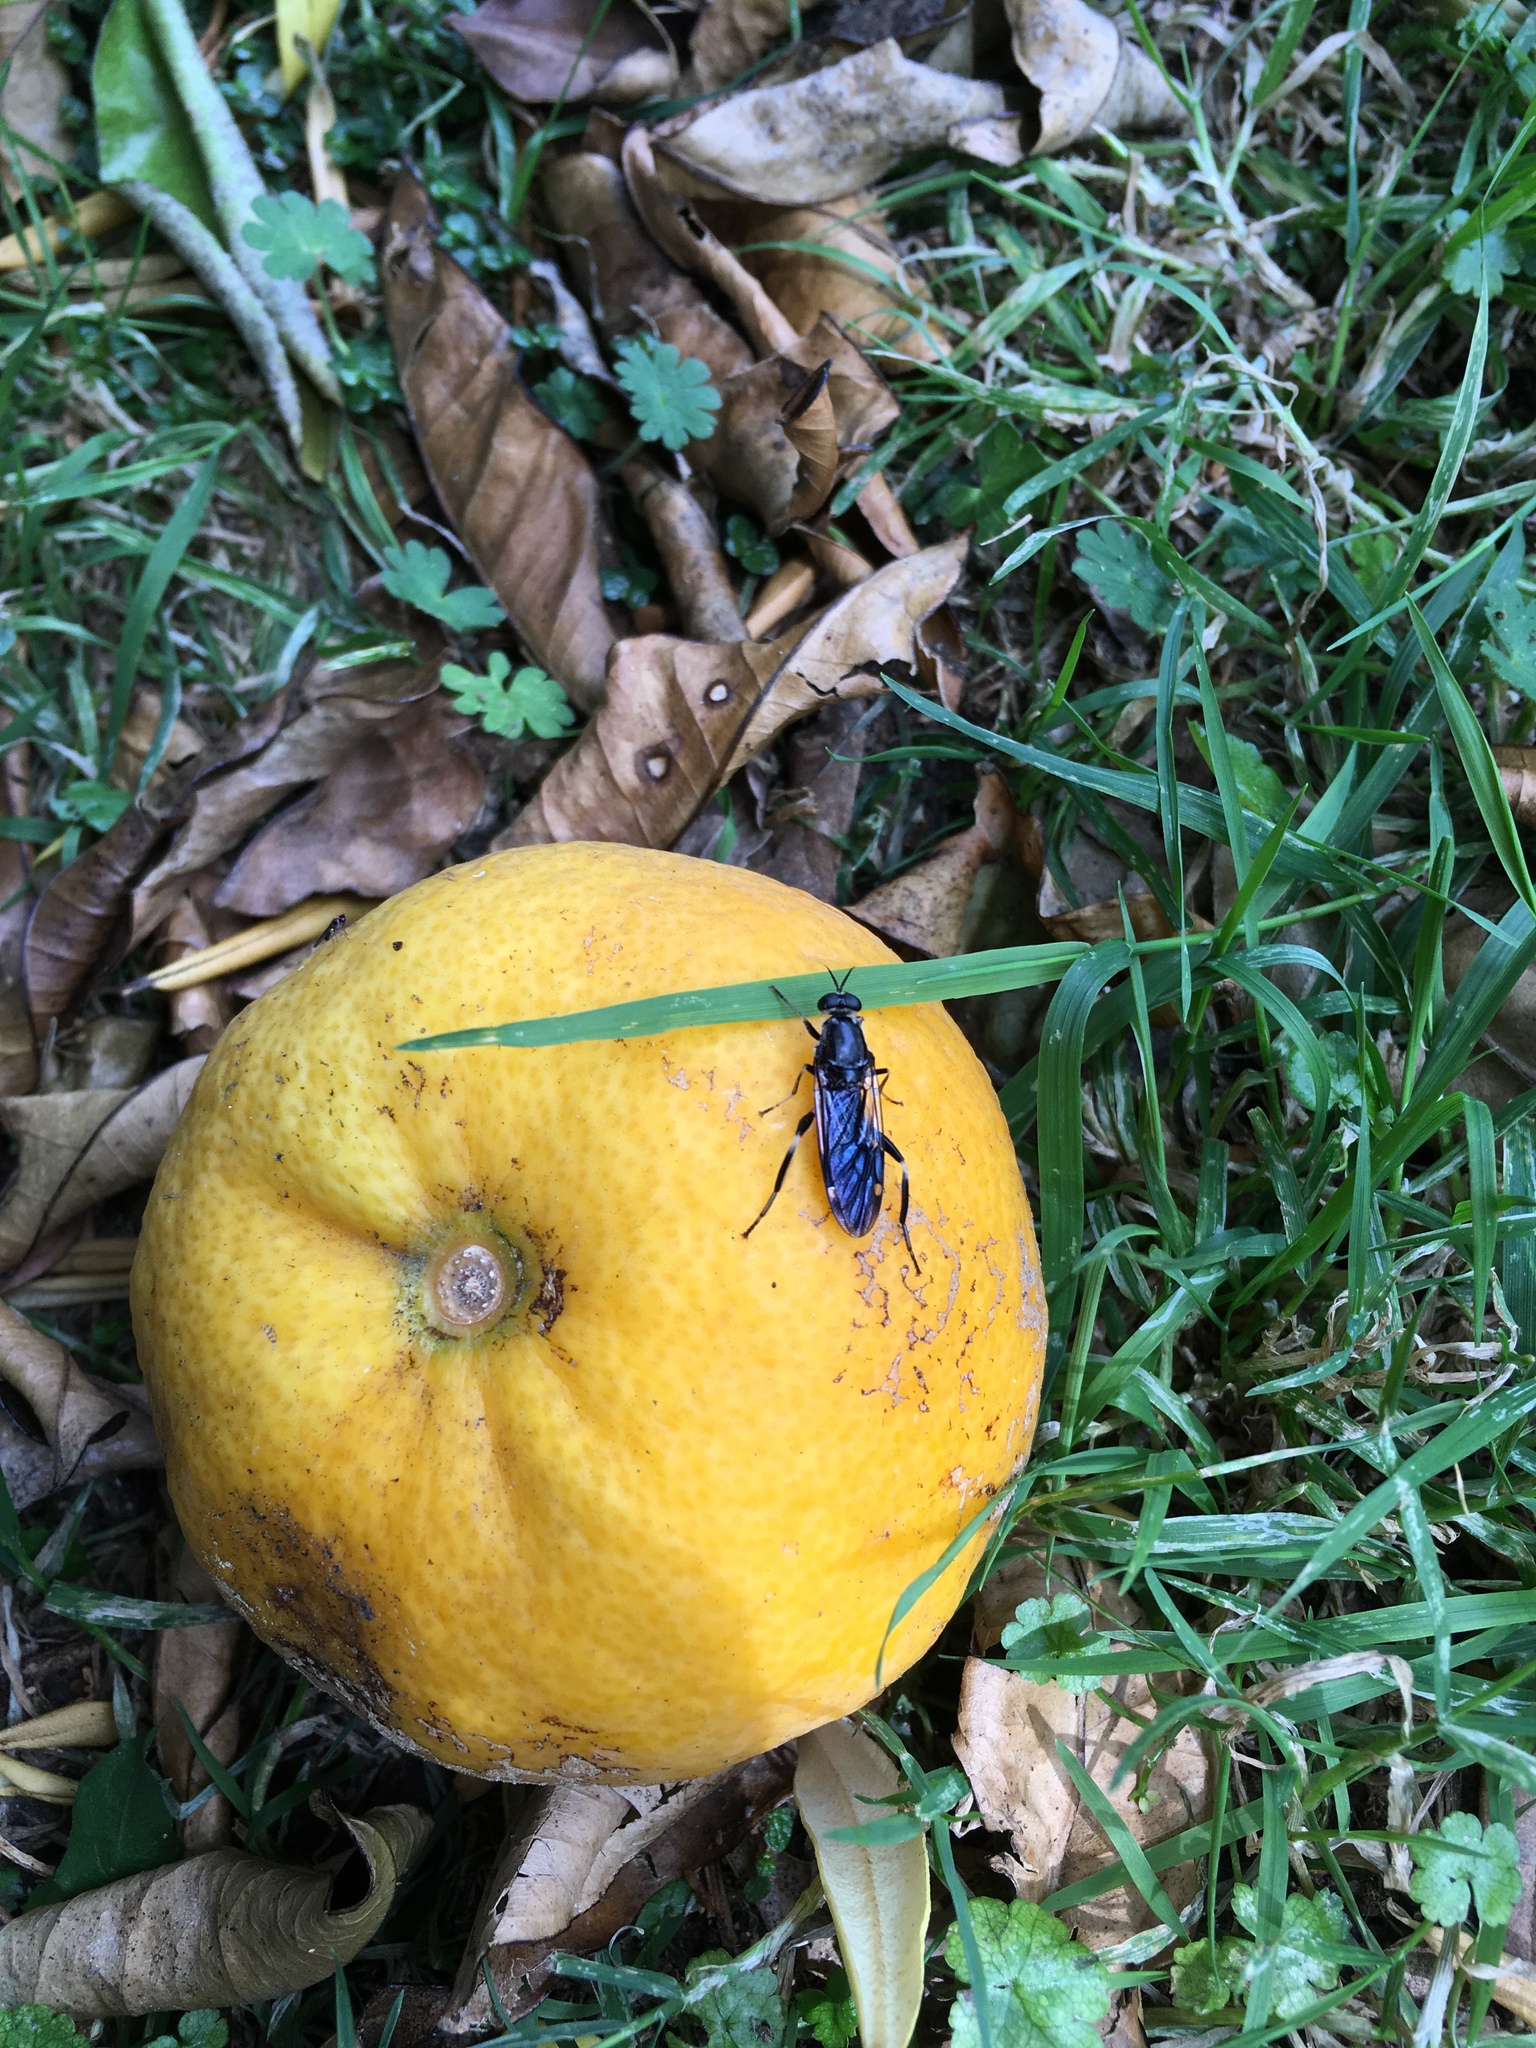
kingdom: Animalia
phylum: Arthropoda
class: Insecta
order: Diptera
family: Stratiomyidae
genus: Exaireta
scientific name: Exaireta spinigera
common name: Blue soldier fly
